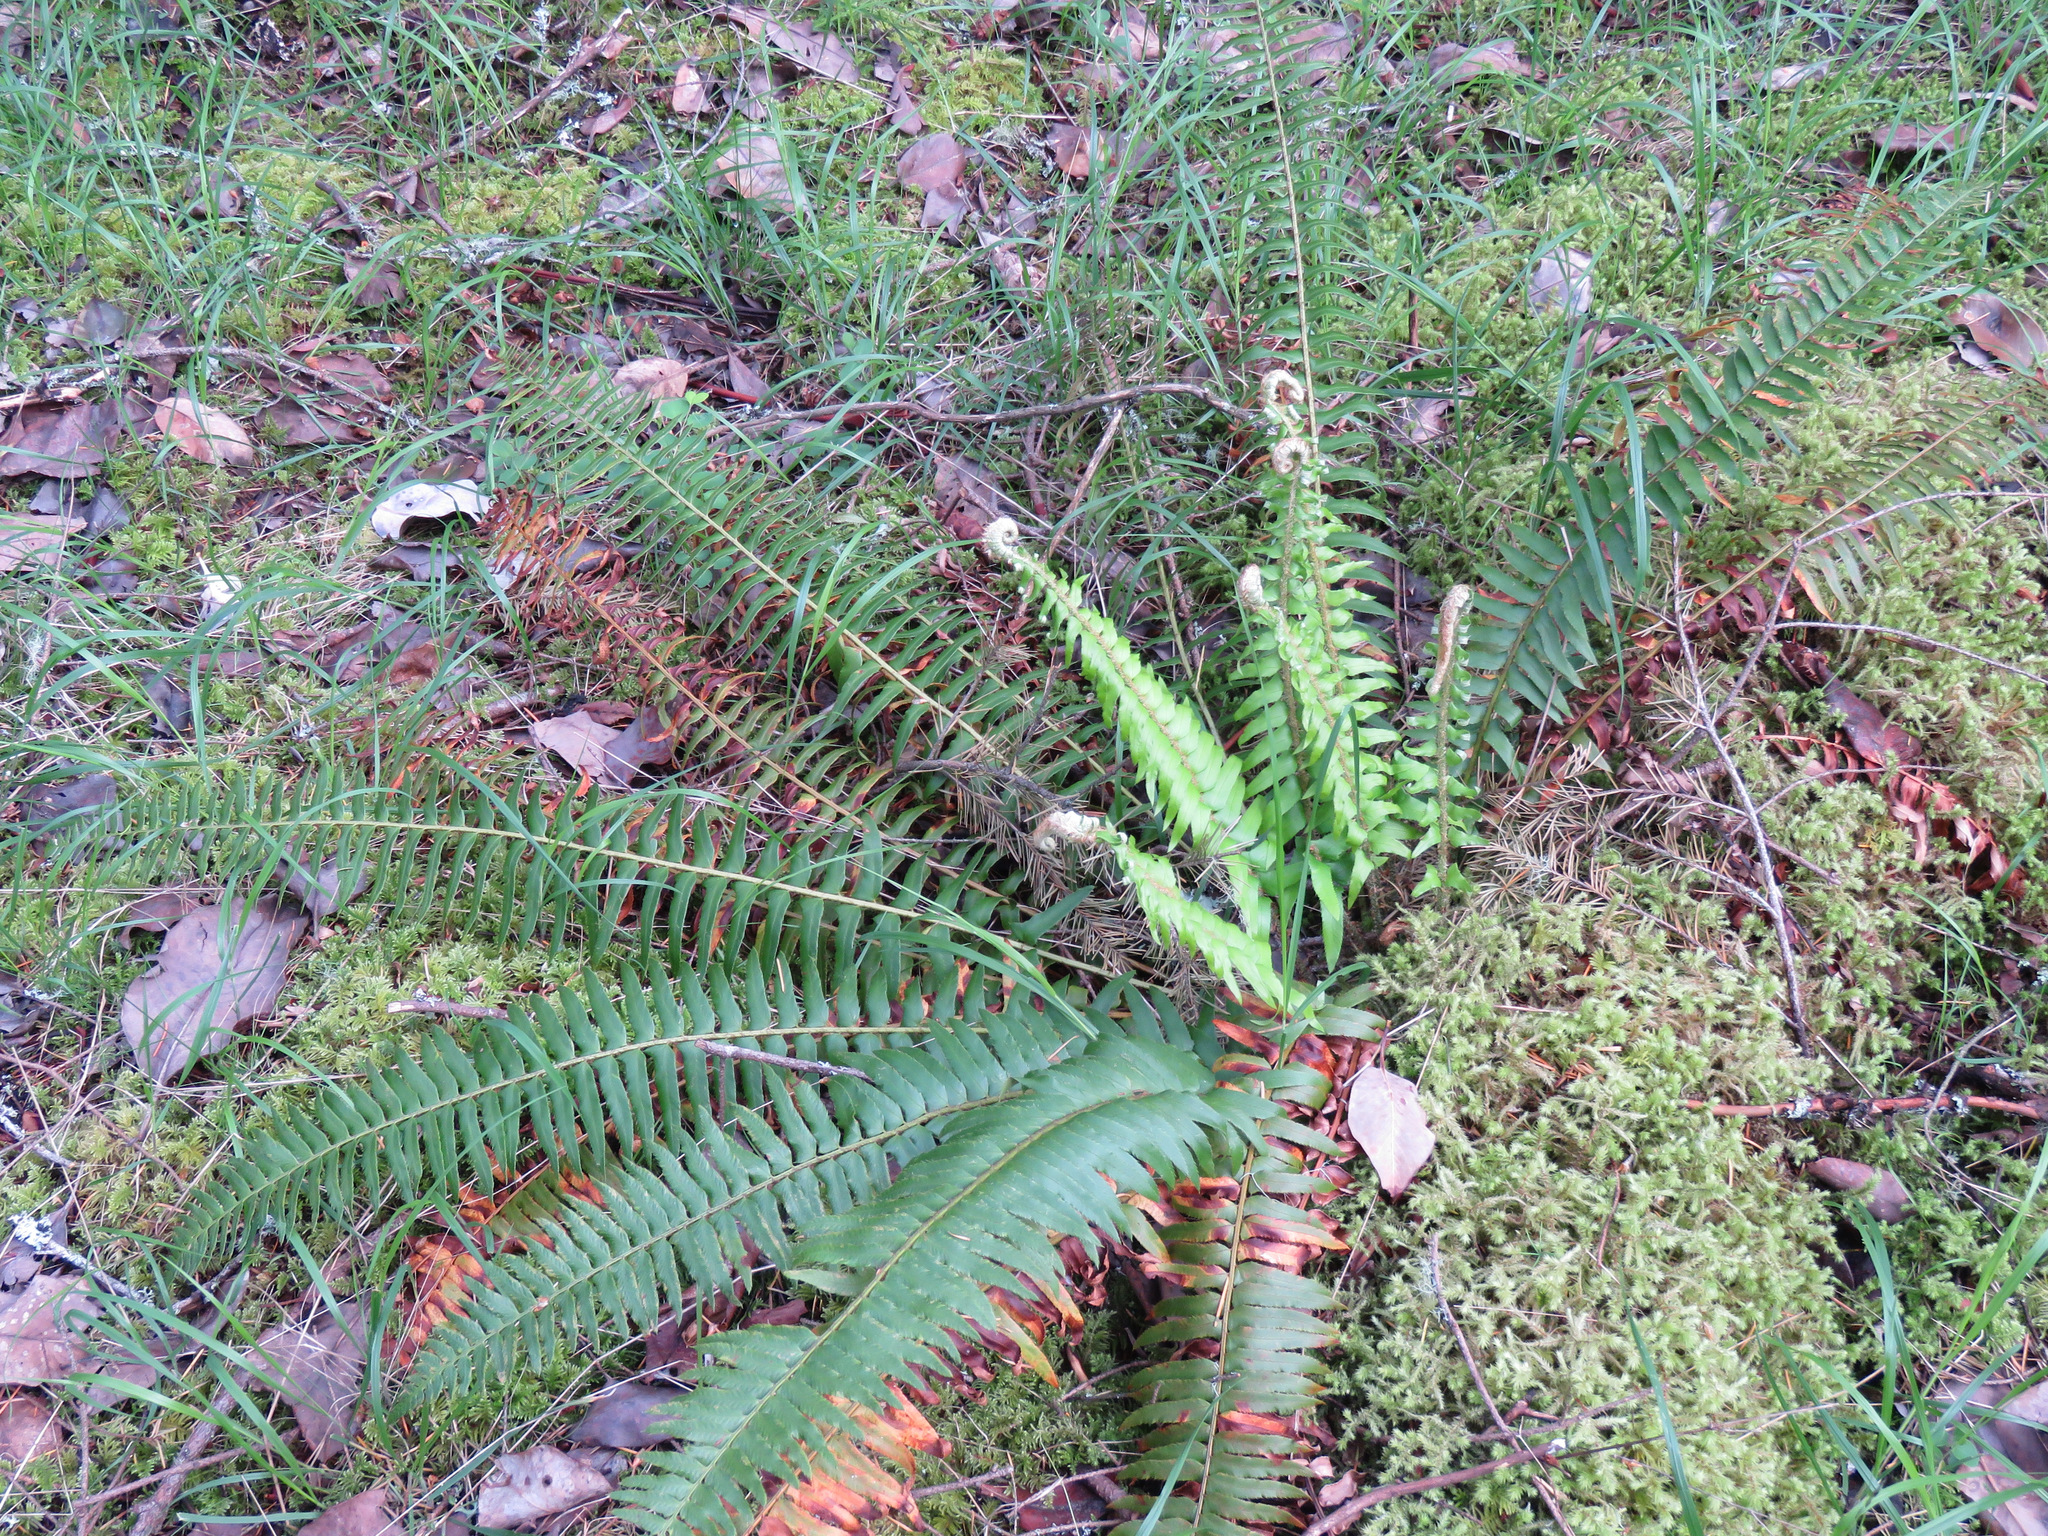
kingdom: Plantae
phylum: Tracheophyta
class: Polypodiopsida
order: Polypodiales
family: Dryopteridaceae
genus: Polystichum
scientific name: Polystichum munitum
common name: Western sword-fern
